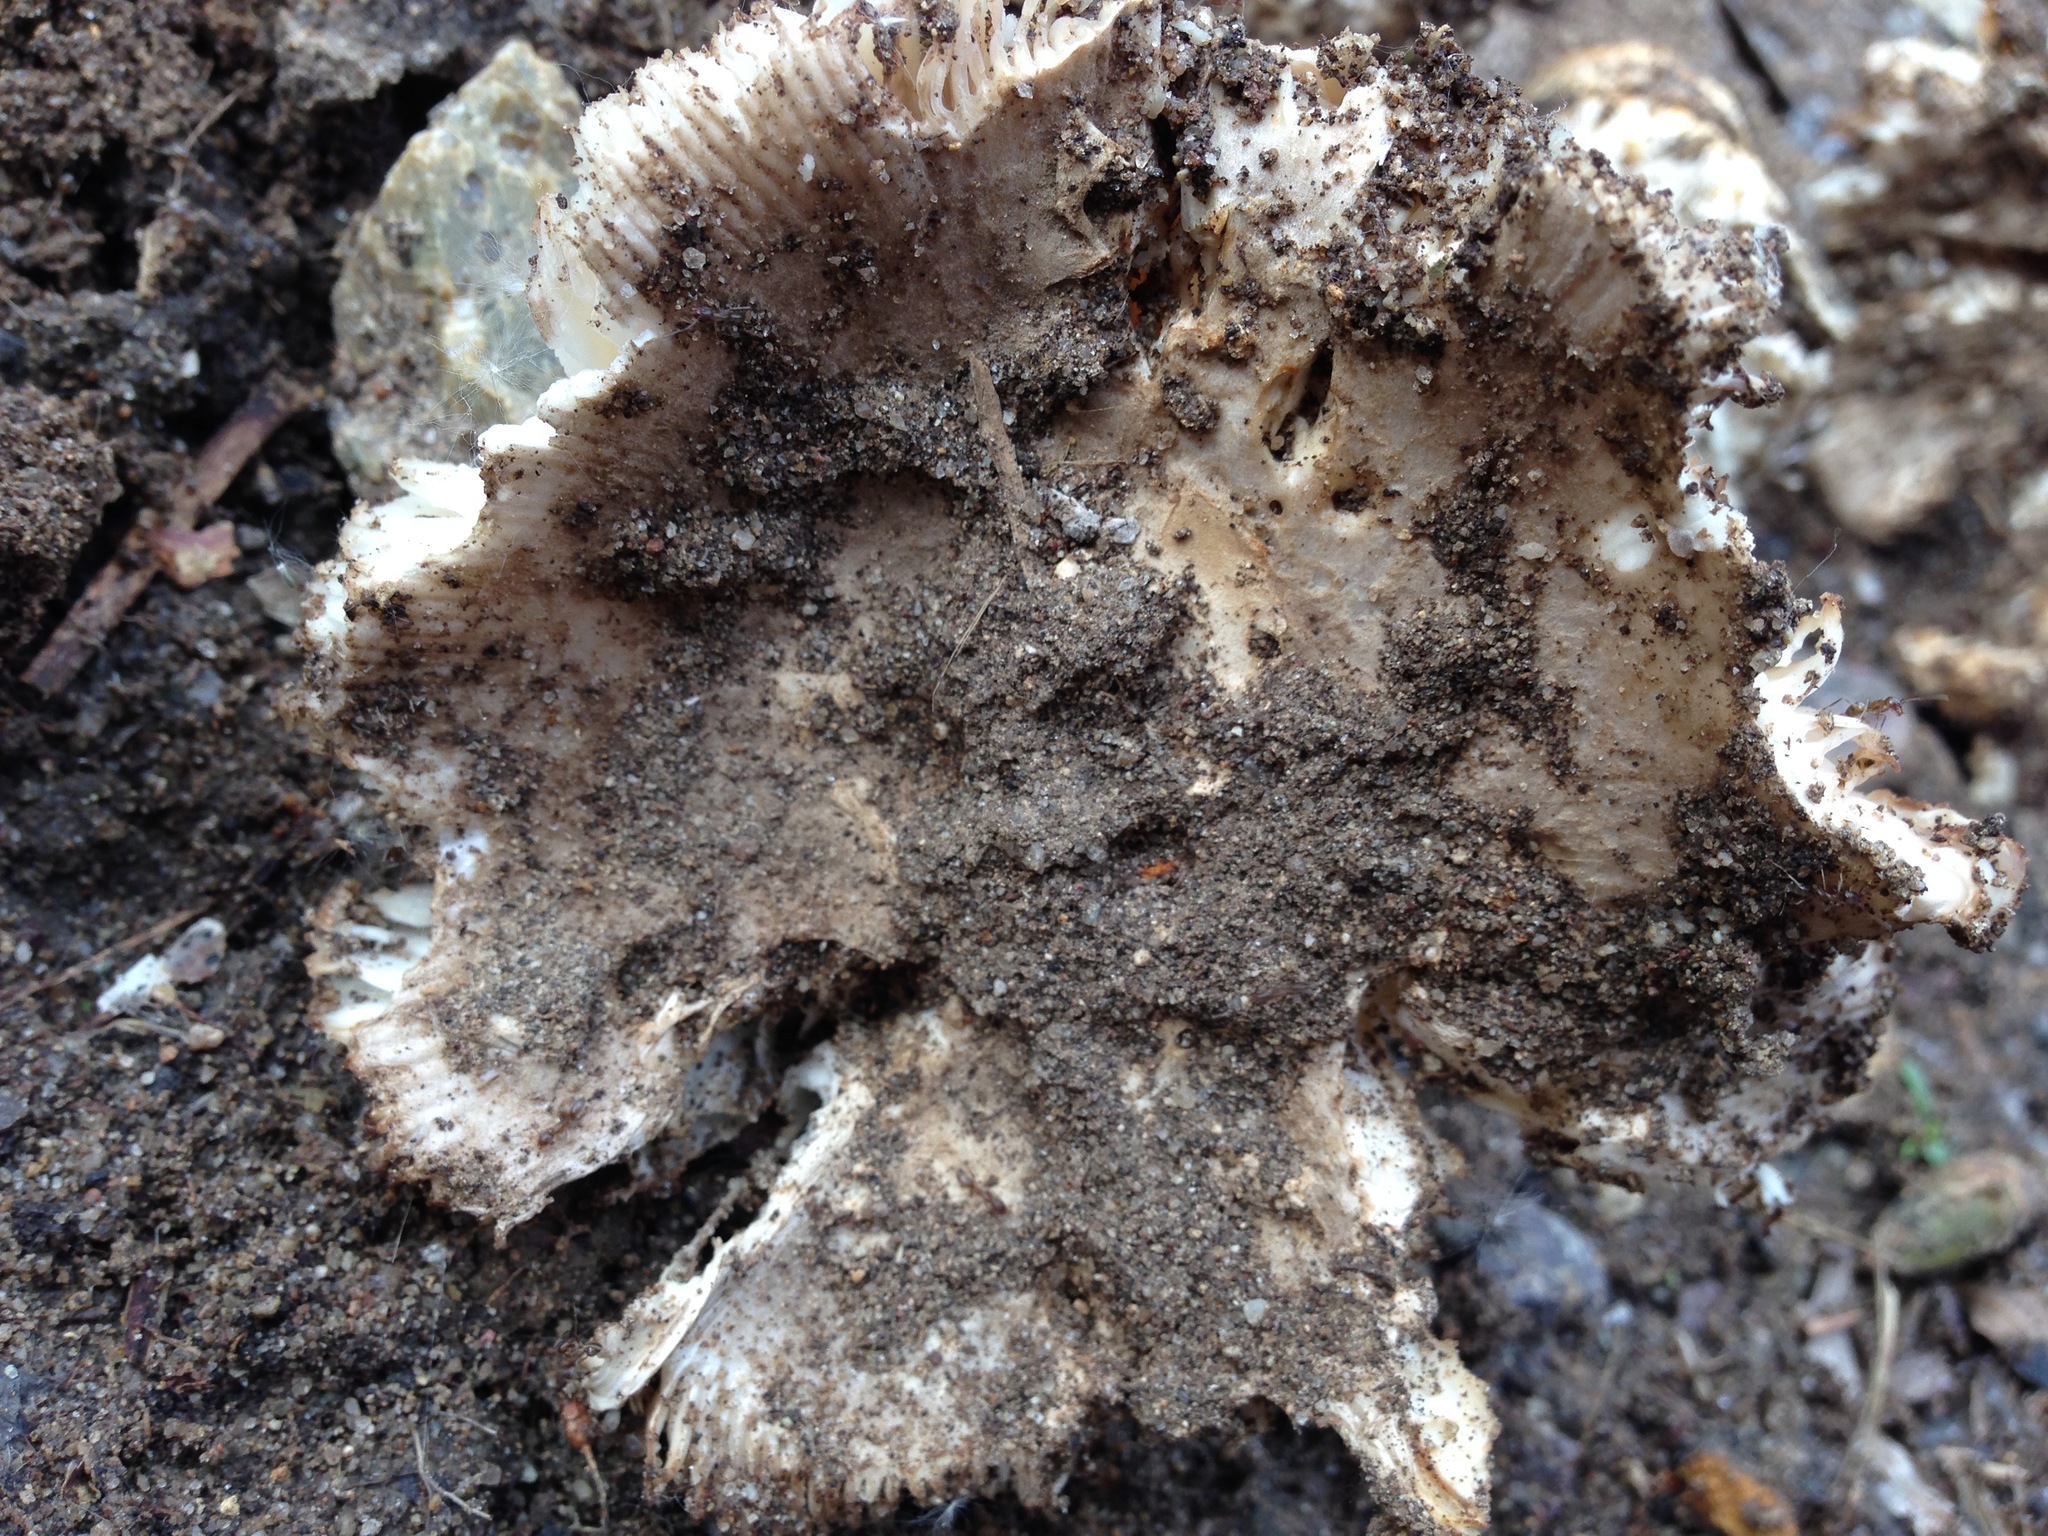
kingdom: Fungi
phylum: Basidiomycota
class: Agaricomycetes
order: Agaricales
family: Amanitaceae
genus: Amanita
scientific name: Amanita protecta
